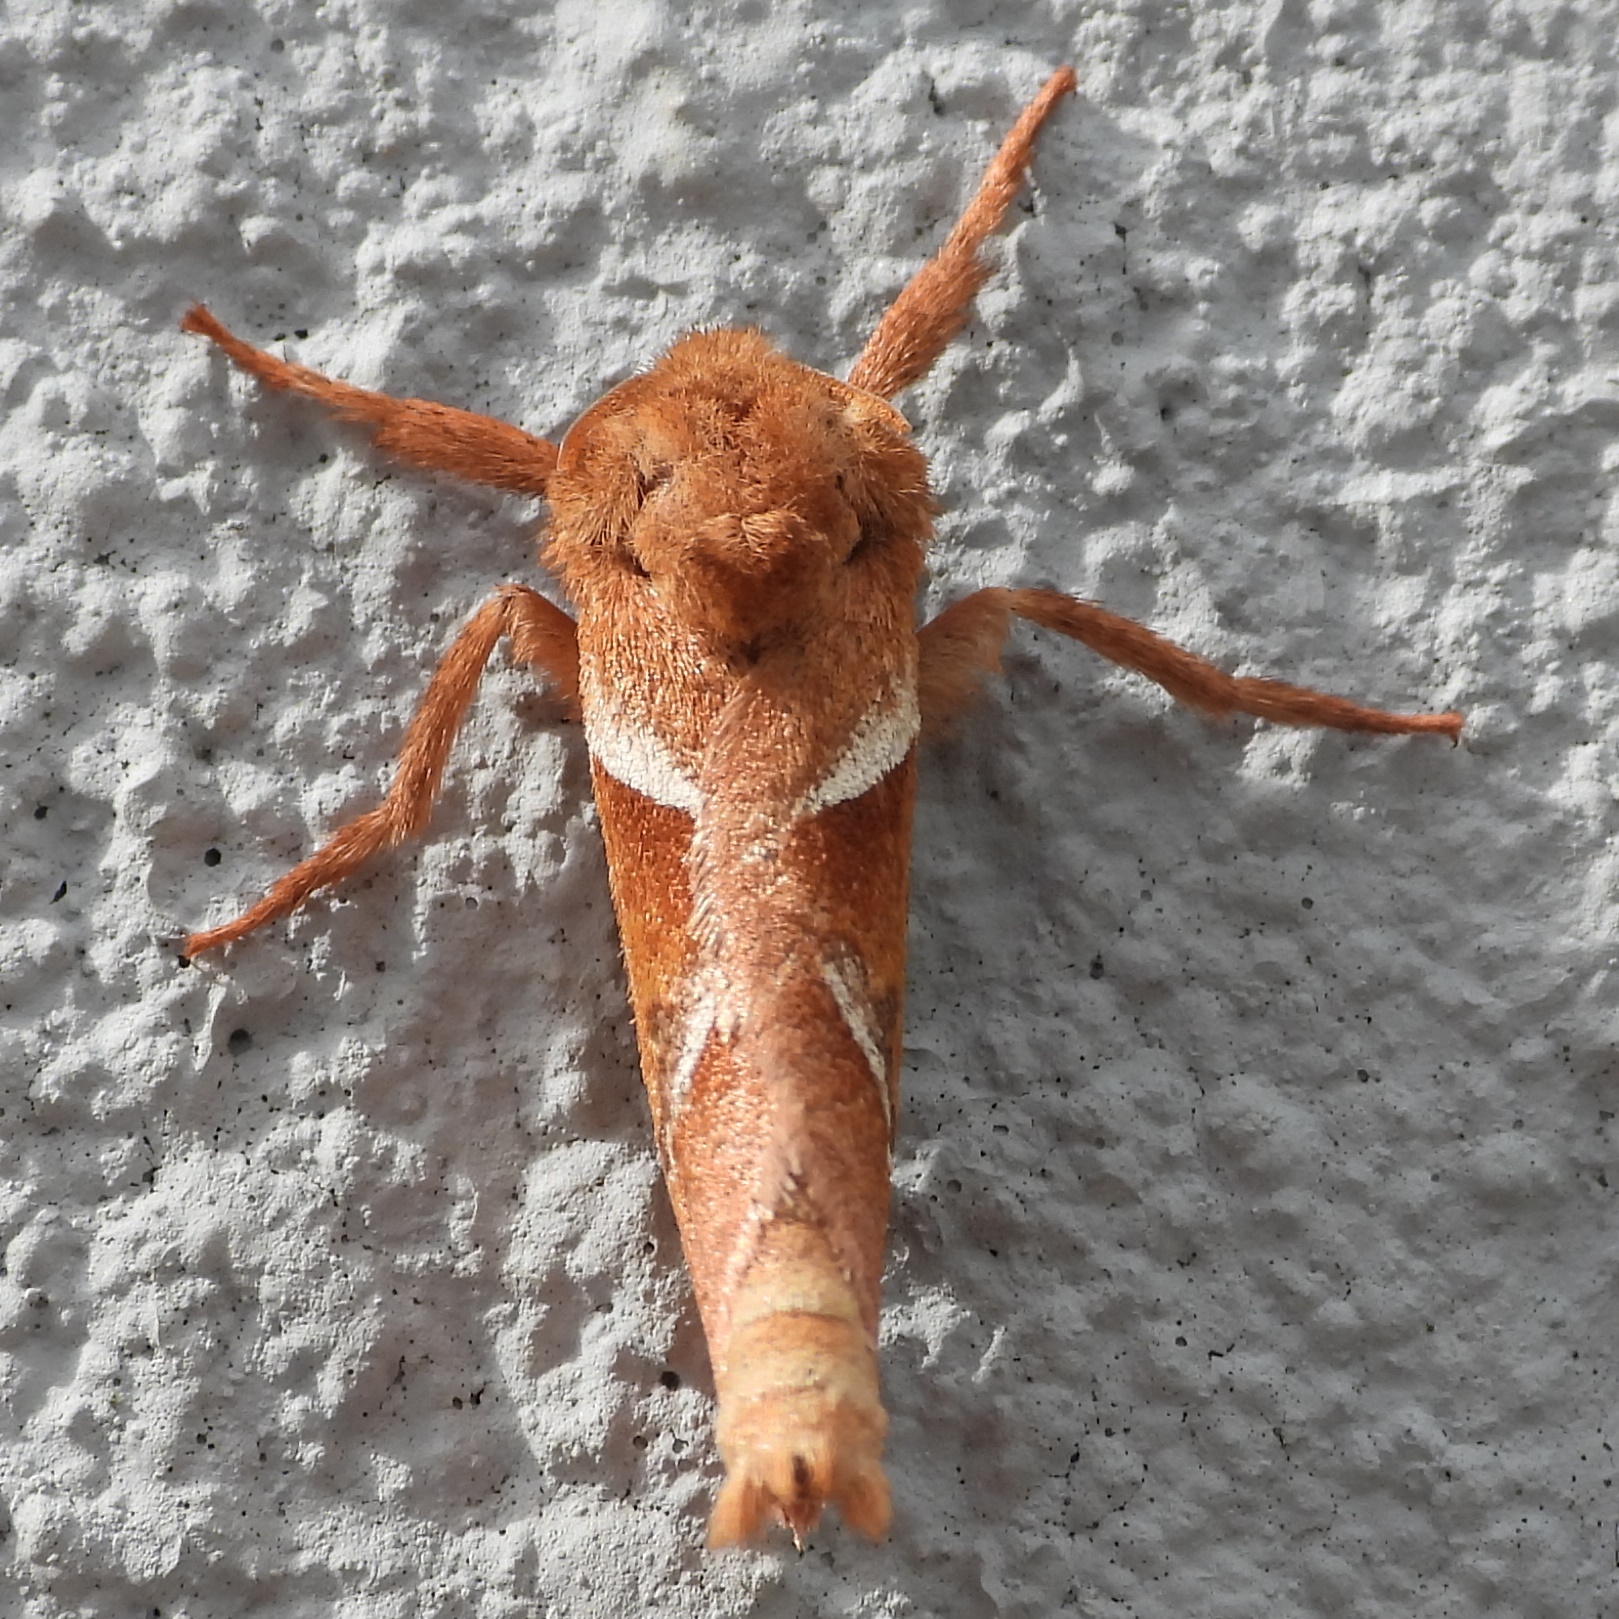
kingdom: Animalia
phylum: Arthropoda
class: Insecta
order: Lepidoptera
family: Hepialidae
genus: Triodia
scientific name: Triodia sylvina
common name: Orange swift
